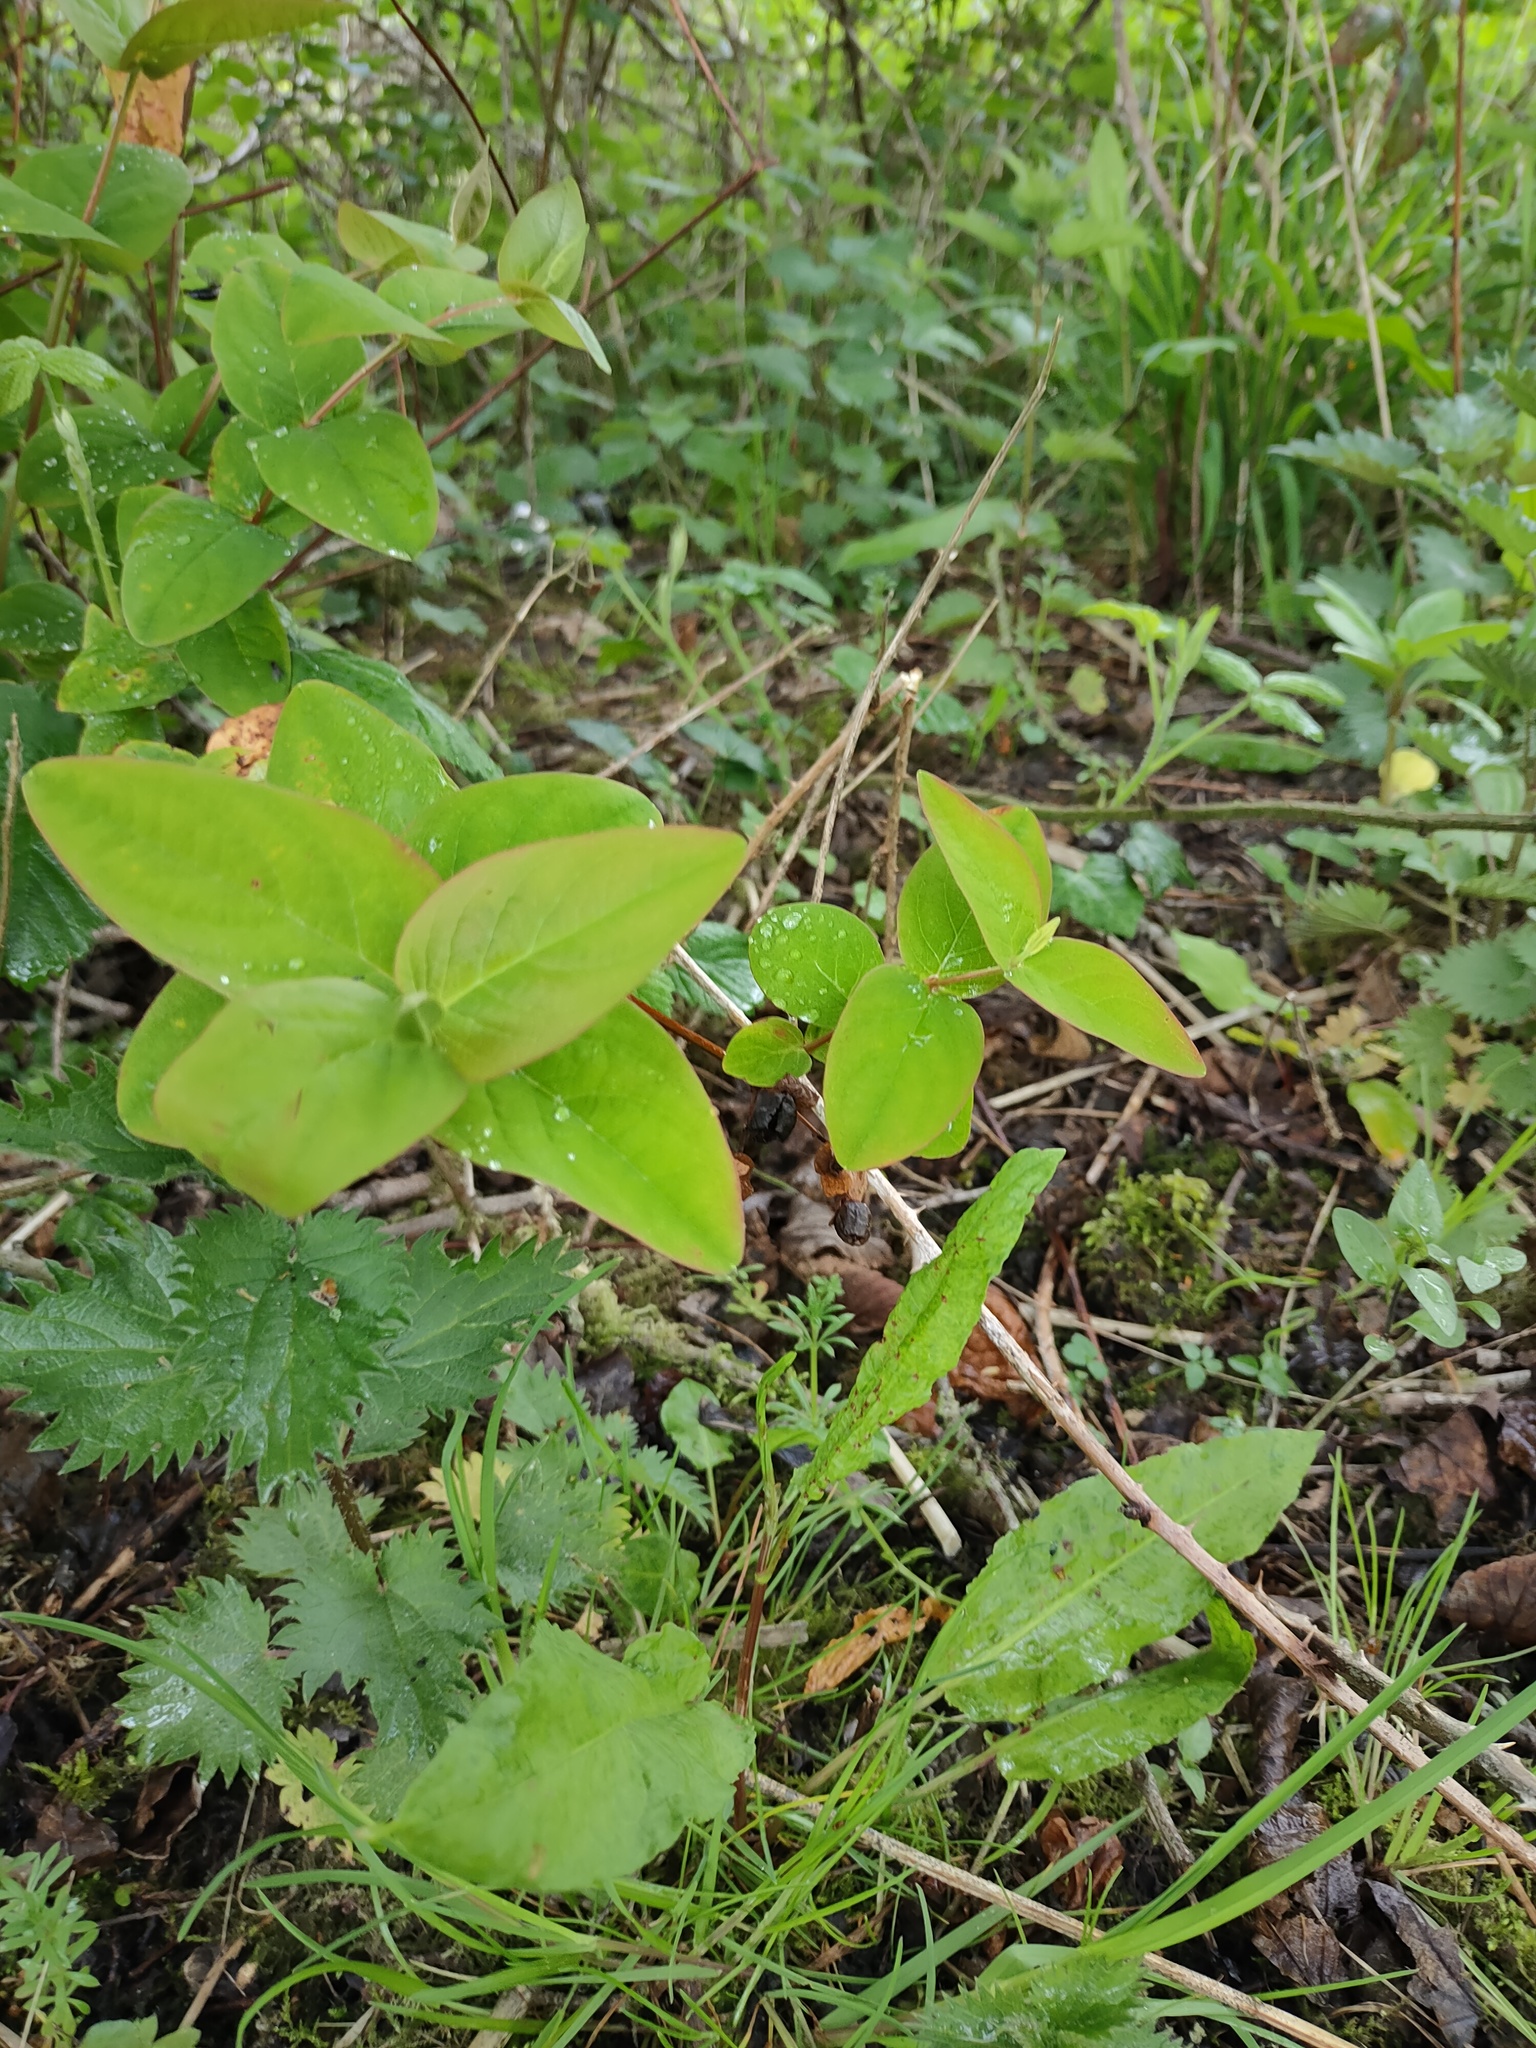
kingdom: Plantae
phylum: Tracheophyta
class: Magnoliopsida
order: Malpighiales
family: Hypericaceae
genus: Hypericum
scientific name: Hypericum androsaemum
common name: Sweet-amber
